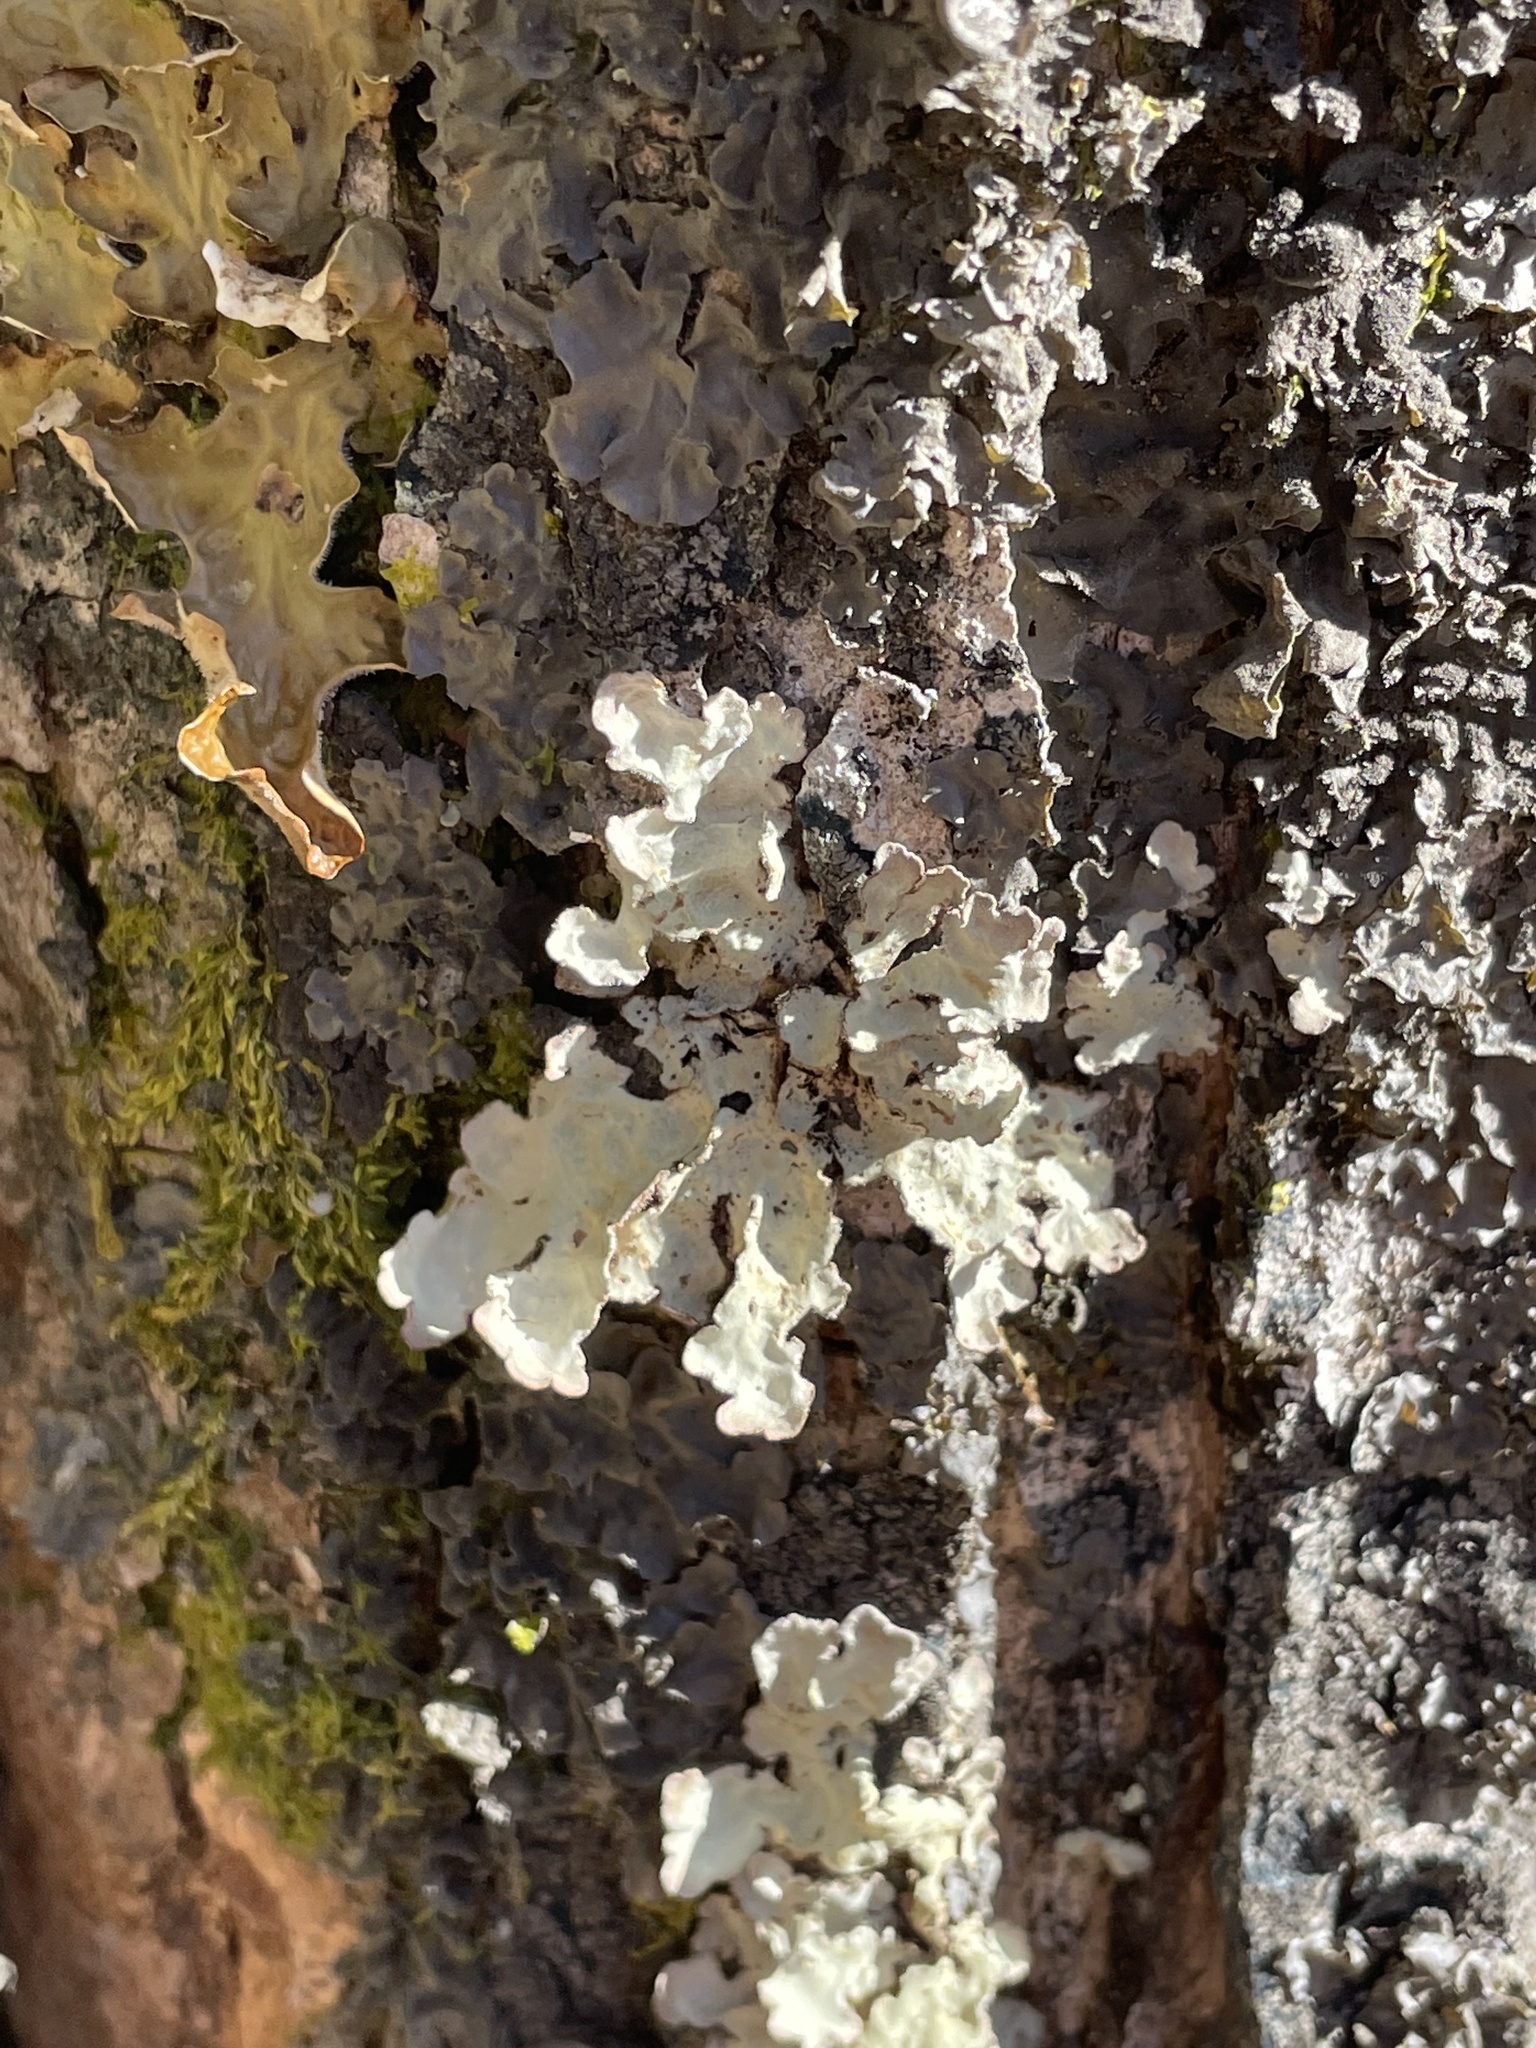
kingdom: Fungi
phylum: Ascomycota
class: Lecanoromycetes
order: Peltigerales
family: Lobariaceae
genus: Lobarina
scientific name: Lobarina scrobiculata
